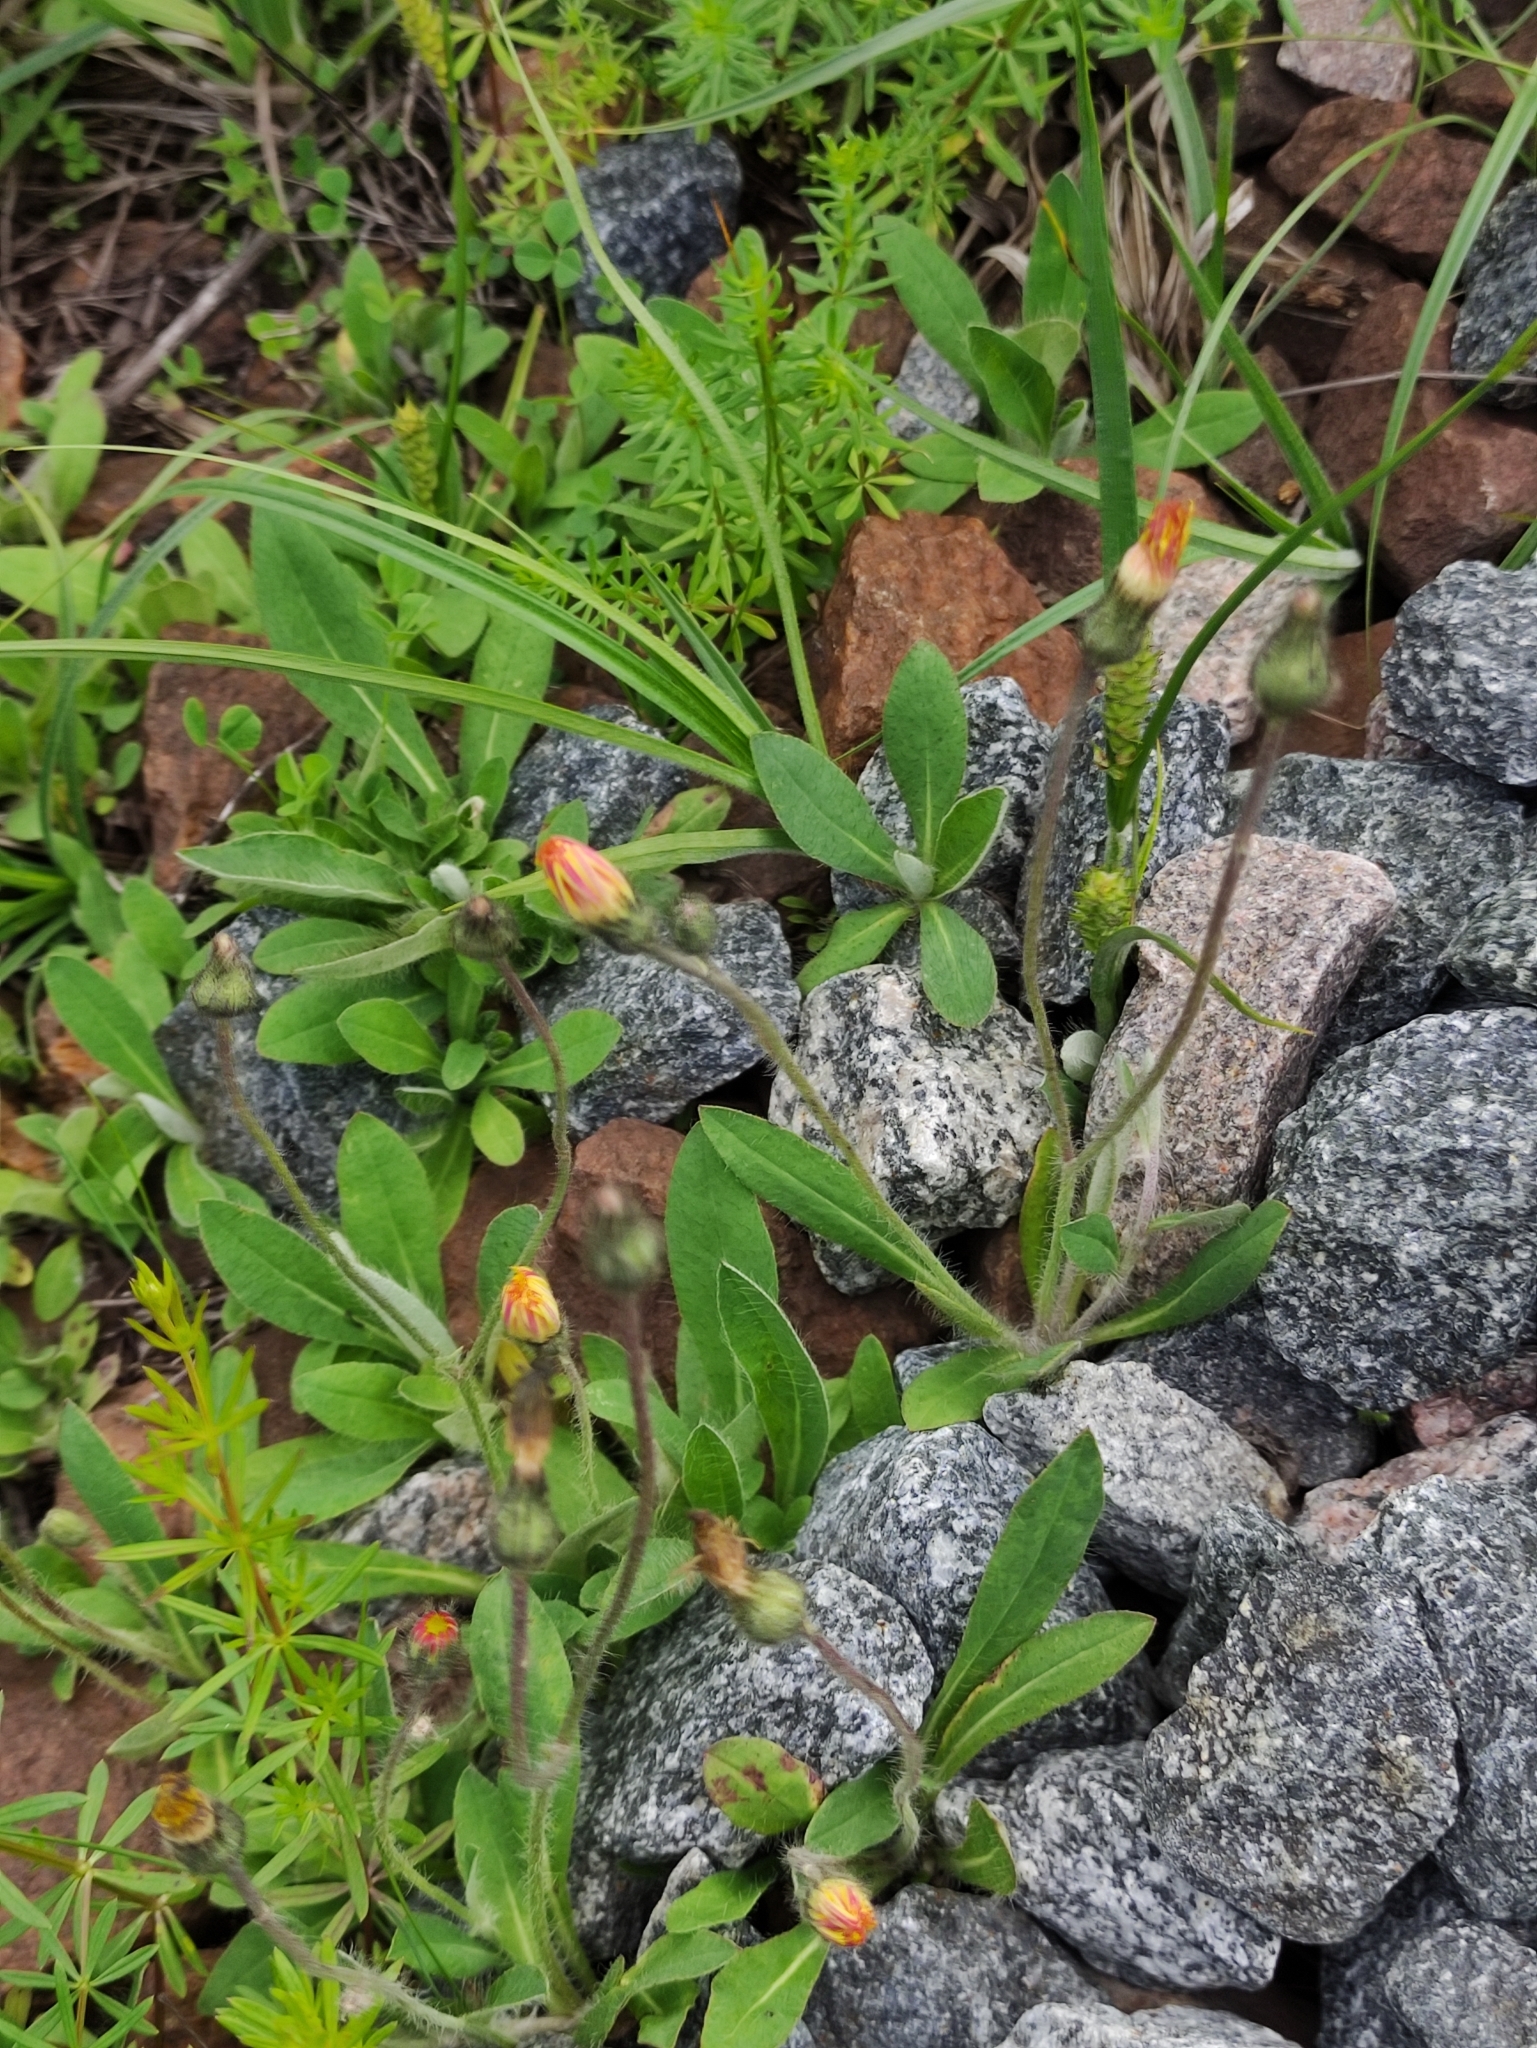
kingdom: Plantae
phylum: Tracheophyta
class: Magnoliopsida
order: Asterales
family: Asteraceae
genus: Pilosella
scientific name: Pilosella officinarum
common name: Mouse-ear hawkweed
